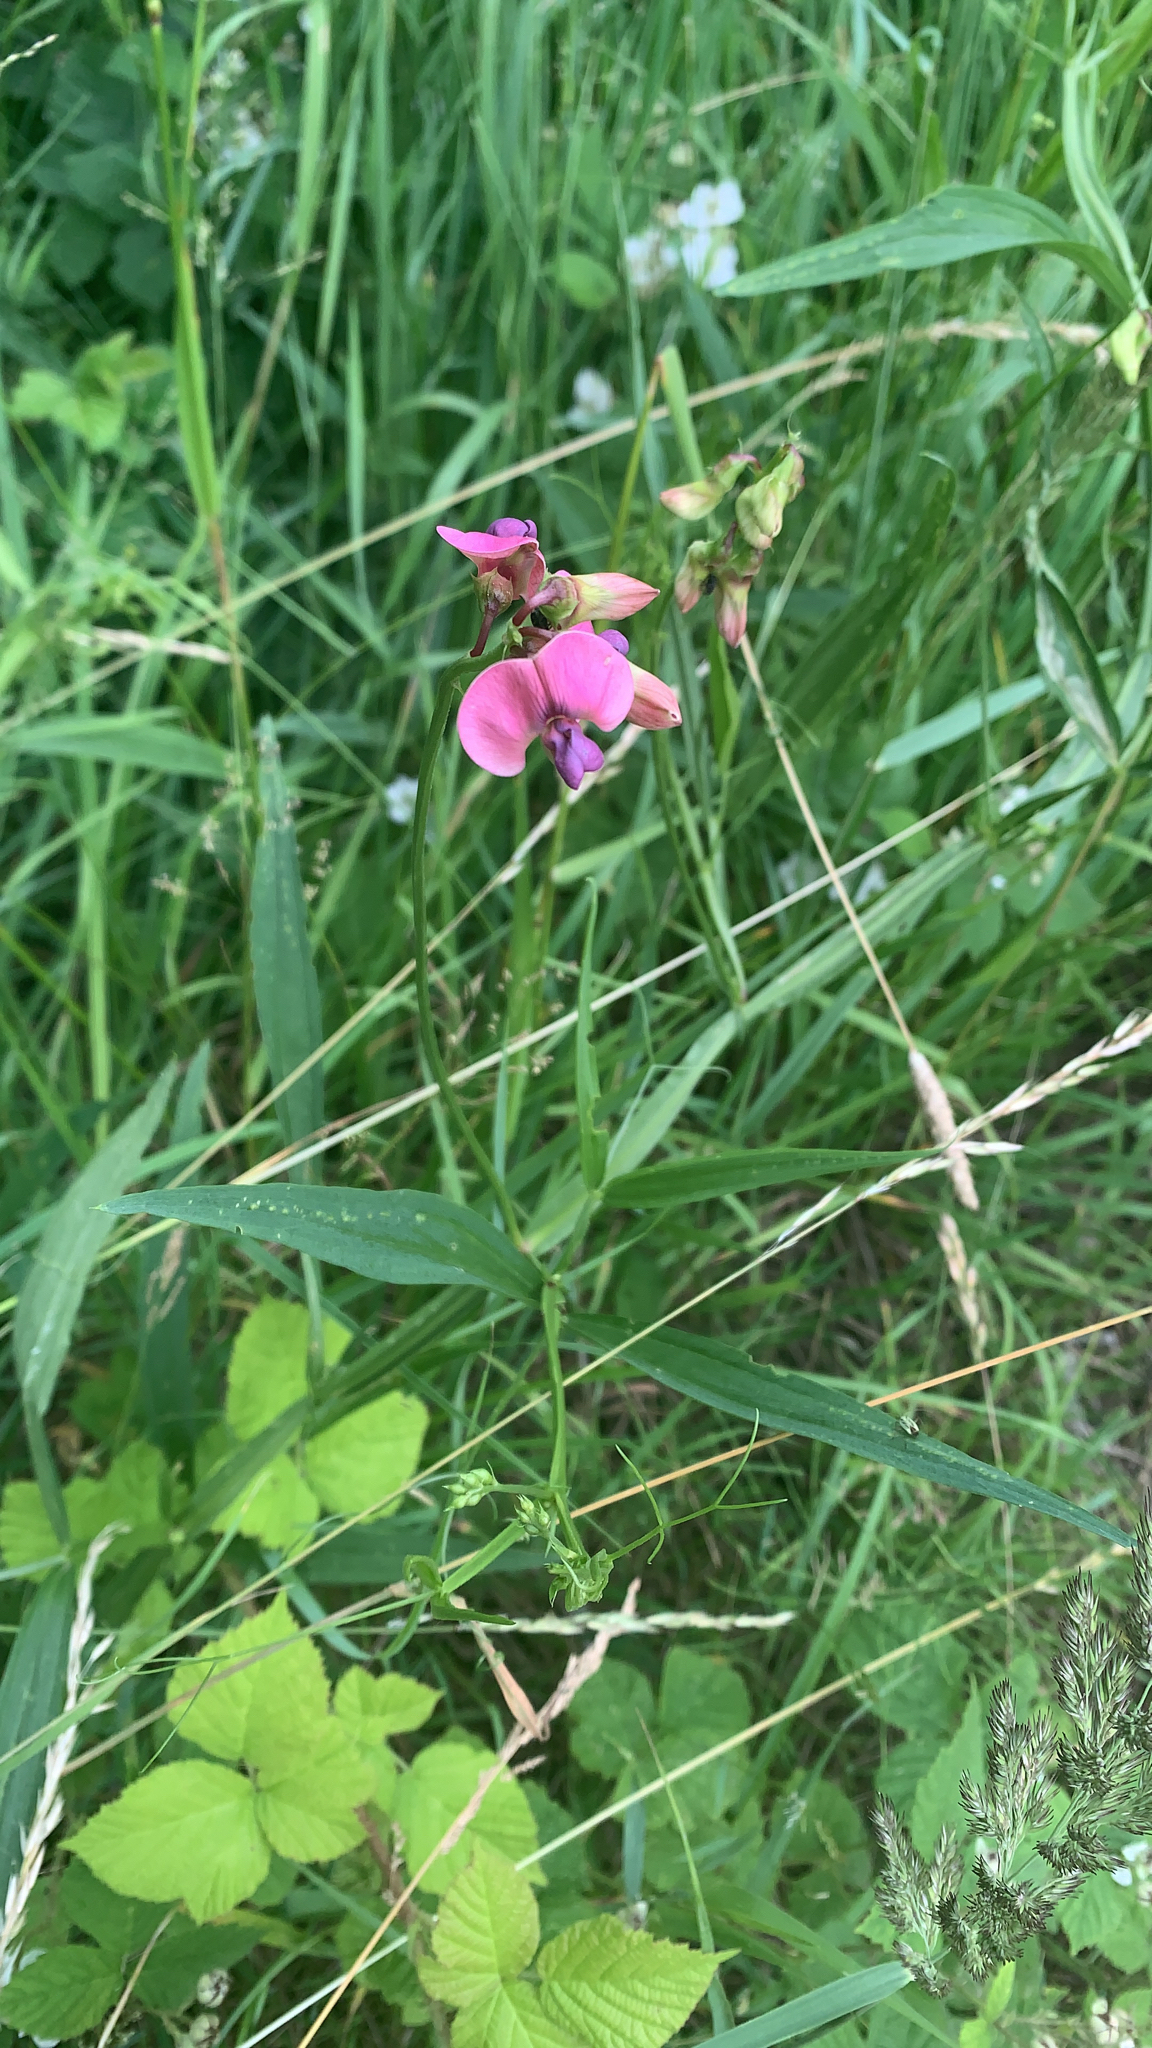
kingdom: Plantae
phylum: Tracheophyta
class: Magnoliopsida
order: Fabales
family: Fabaceae
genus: Lathyrus
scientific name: Lathyrus sylvestris
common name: Flat pea
